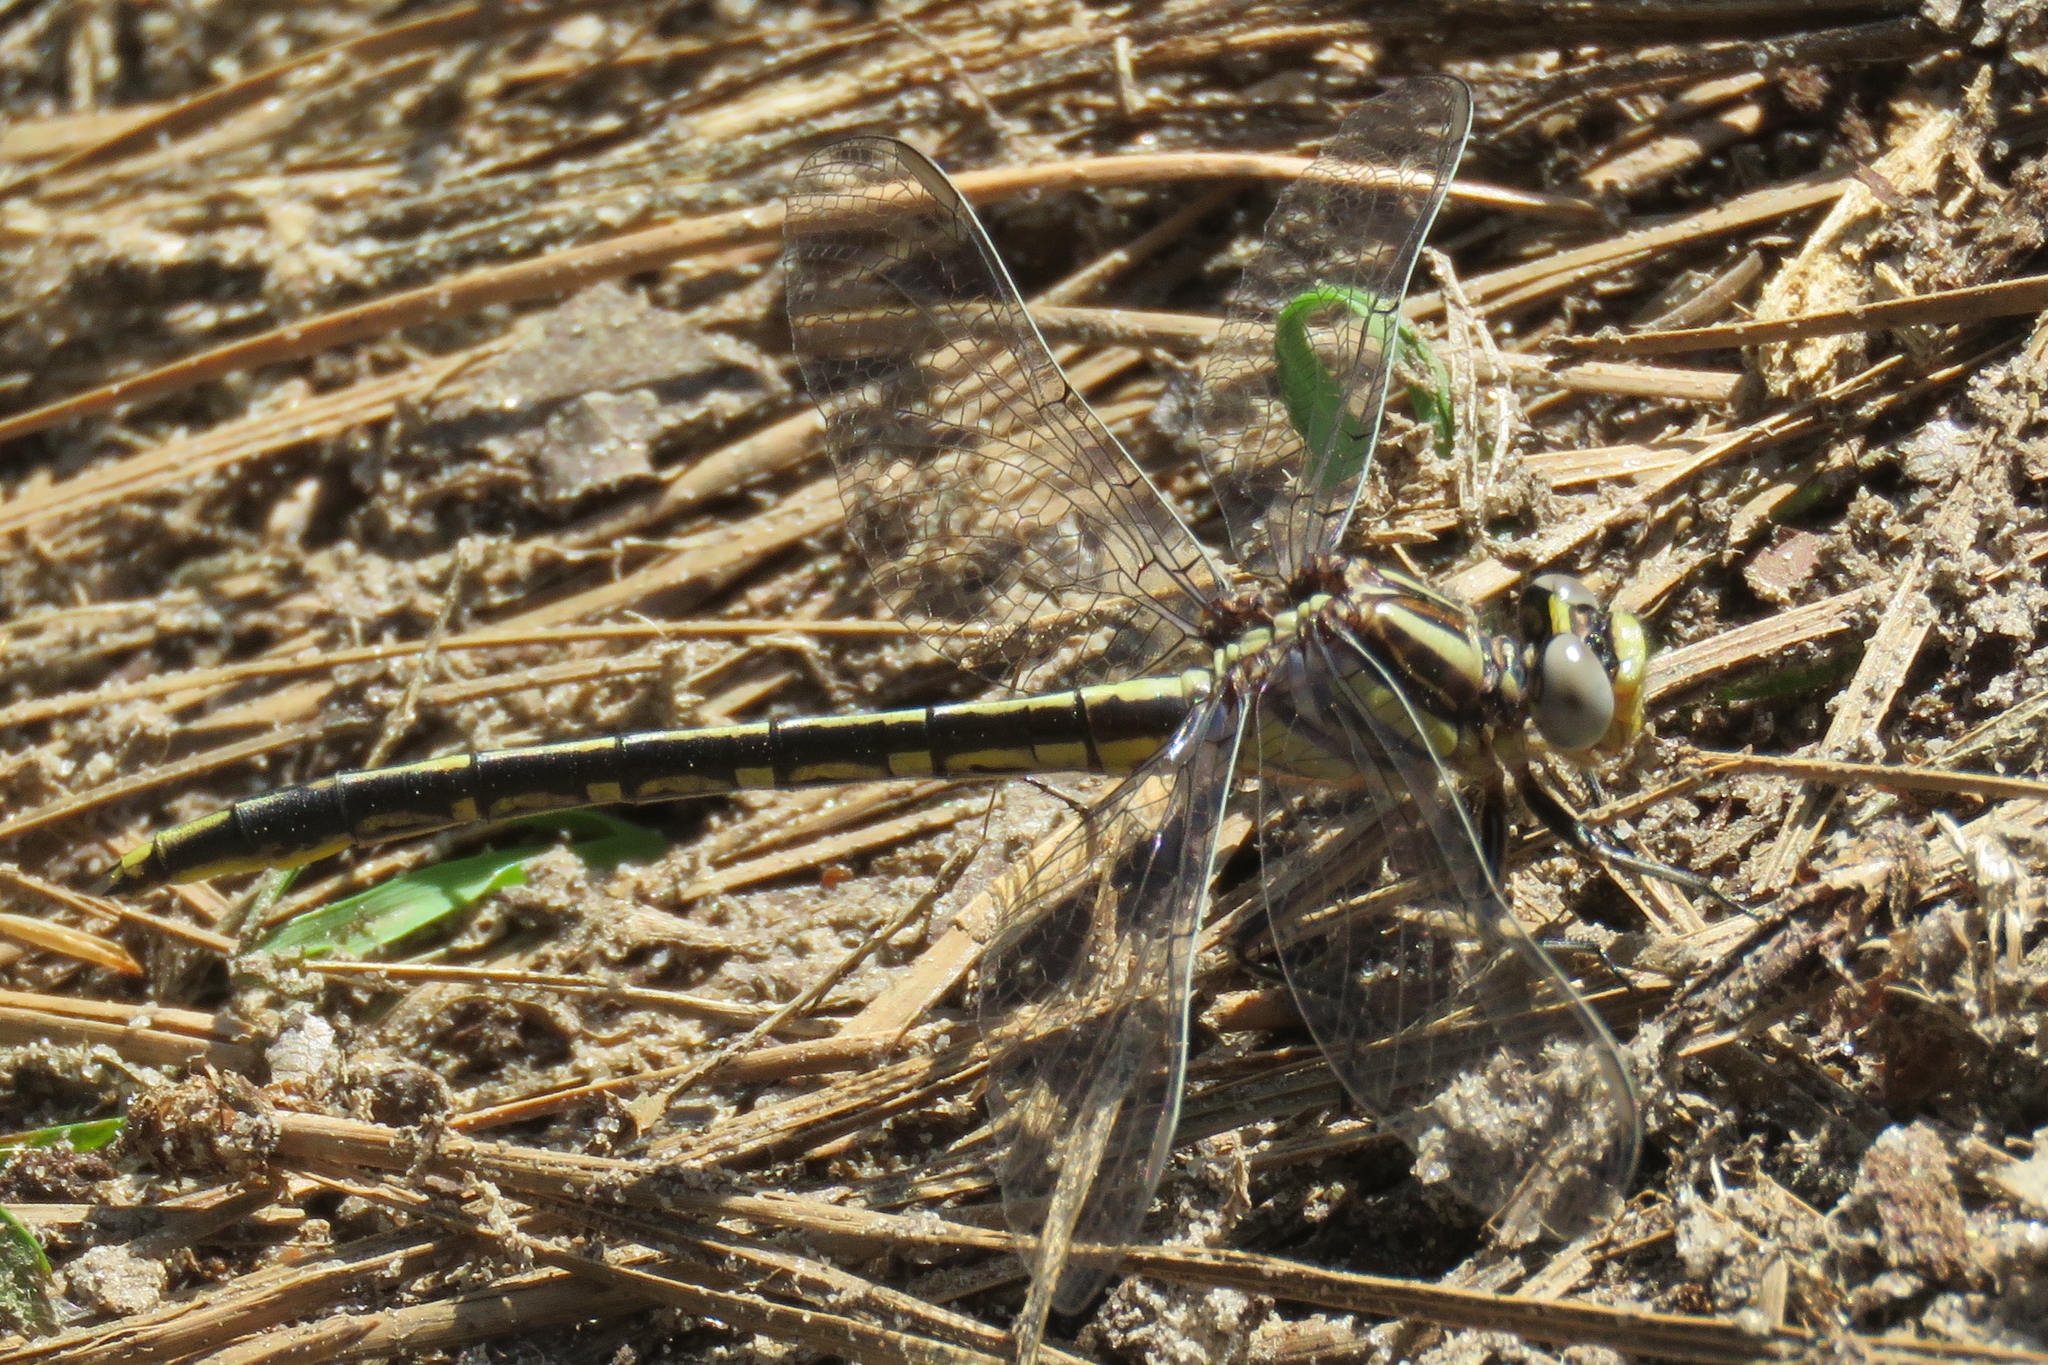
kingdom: Animalia
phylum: Arthropoda
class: Insecta
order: Odonata
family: Gomphidae
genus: Phanogomphus
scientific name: Phanogomphus oklahomensis
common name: Oklahoma clubtail
